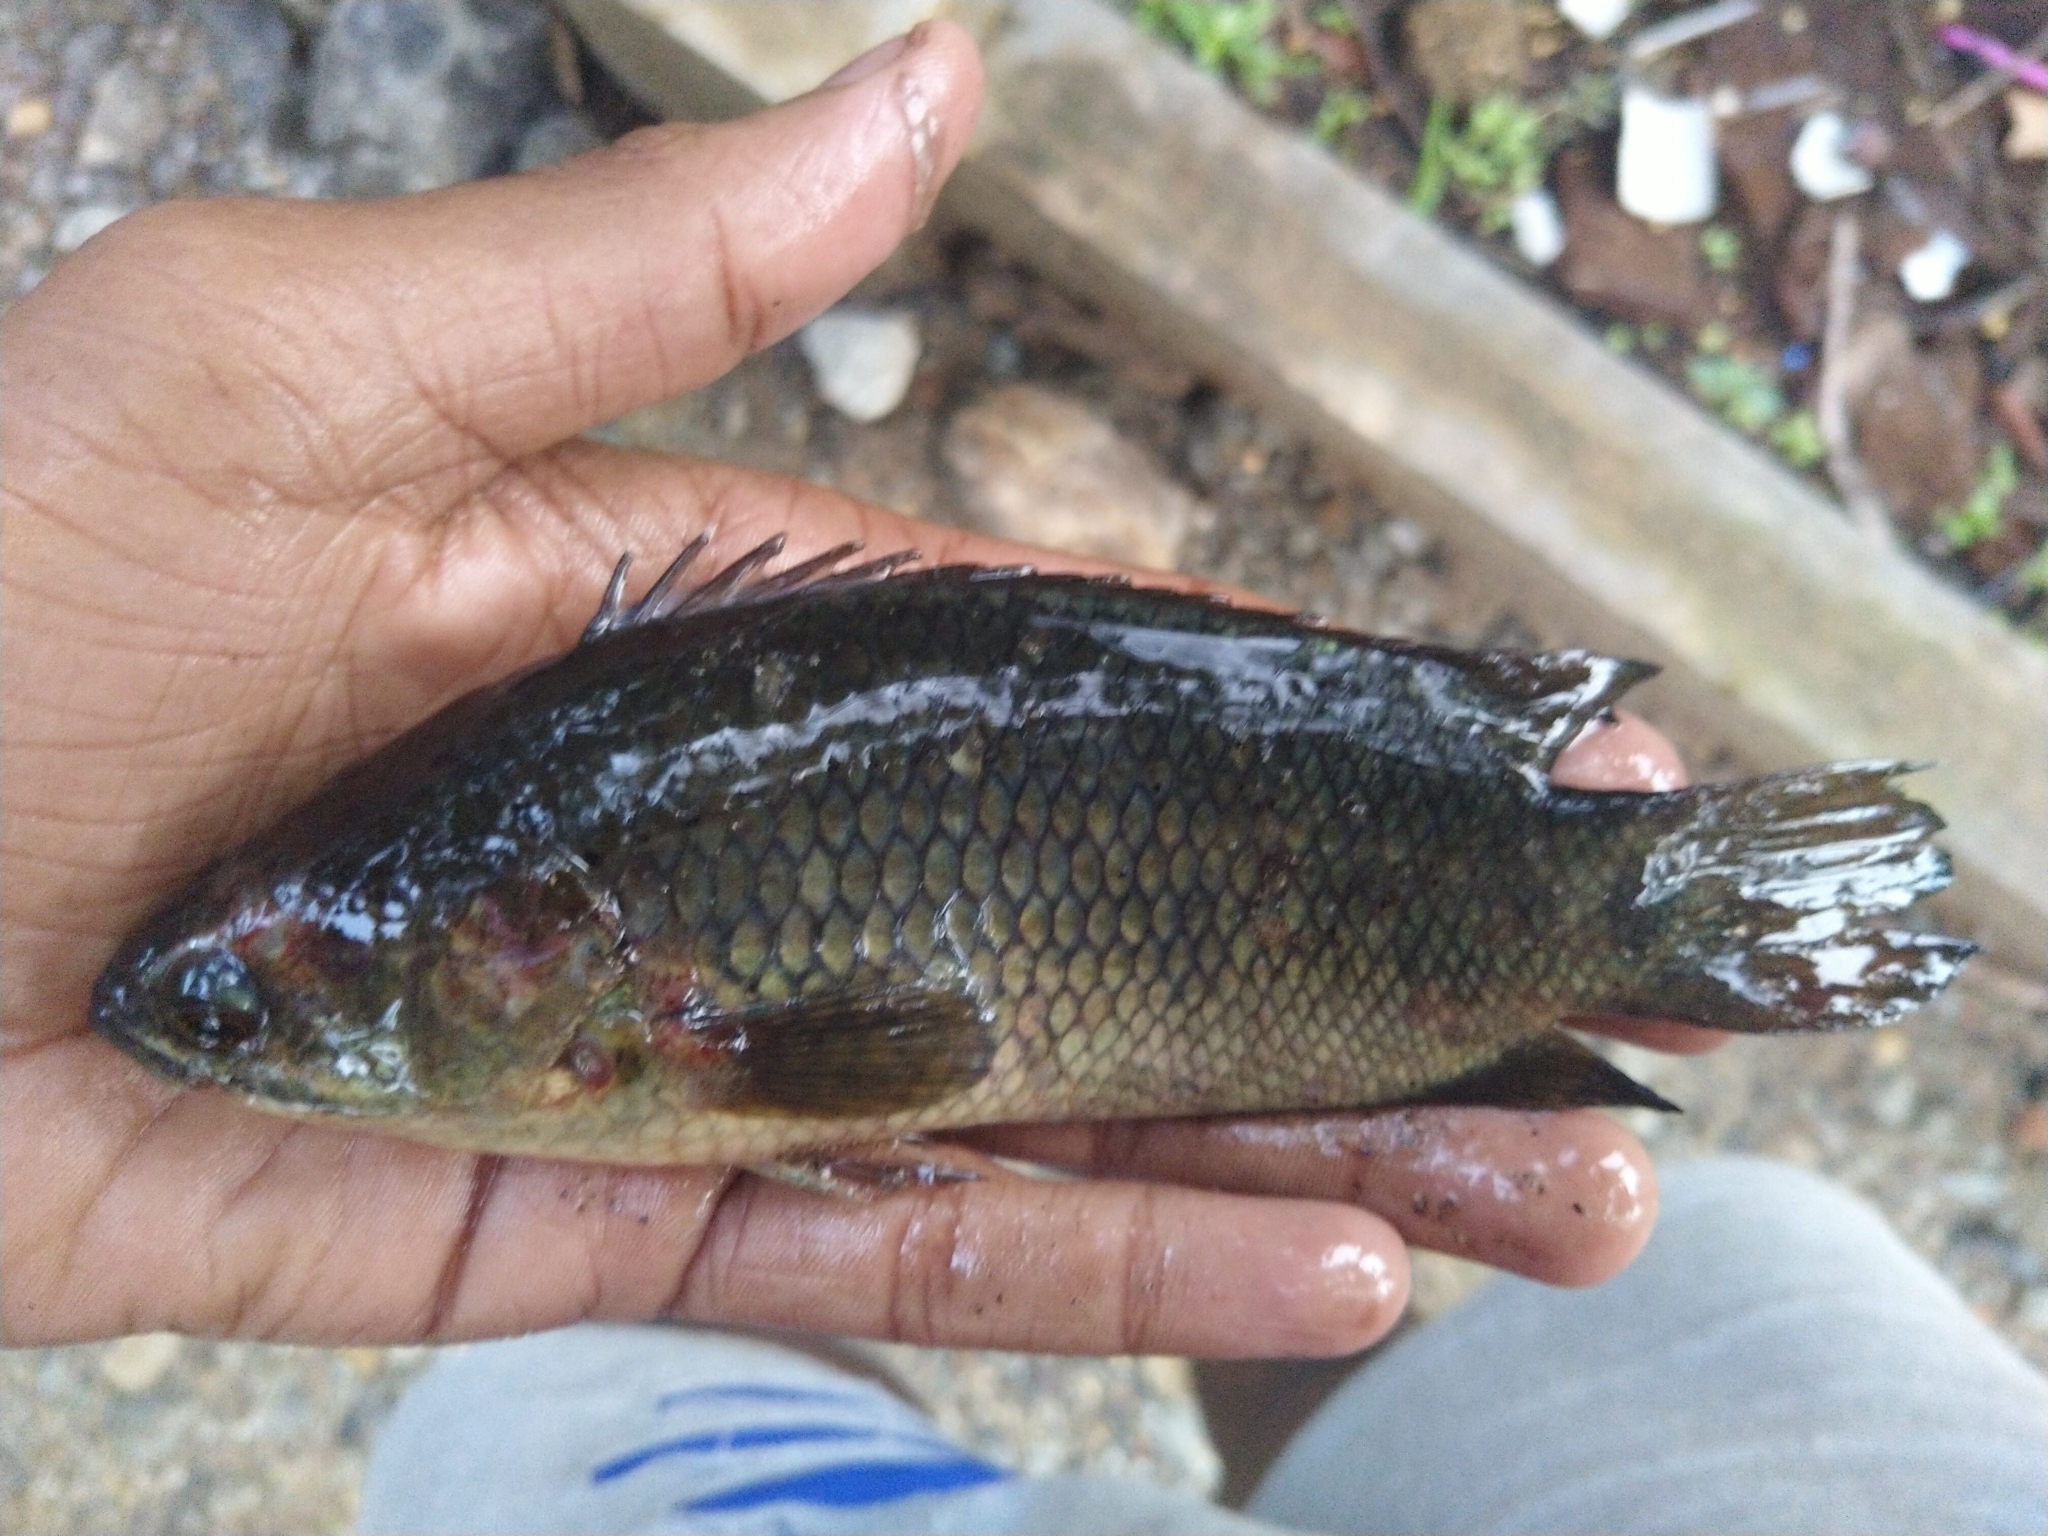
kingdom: Animalia
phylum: Chordata
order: Perciformes
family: Anabantidae
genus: Anabas
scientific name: Anabas testudineus
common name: Climbing perch
